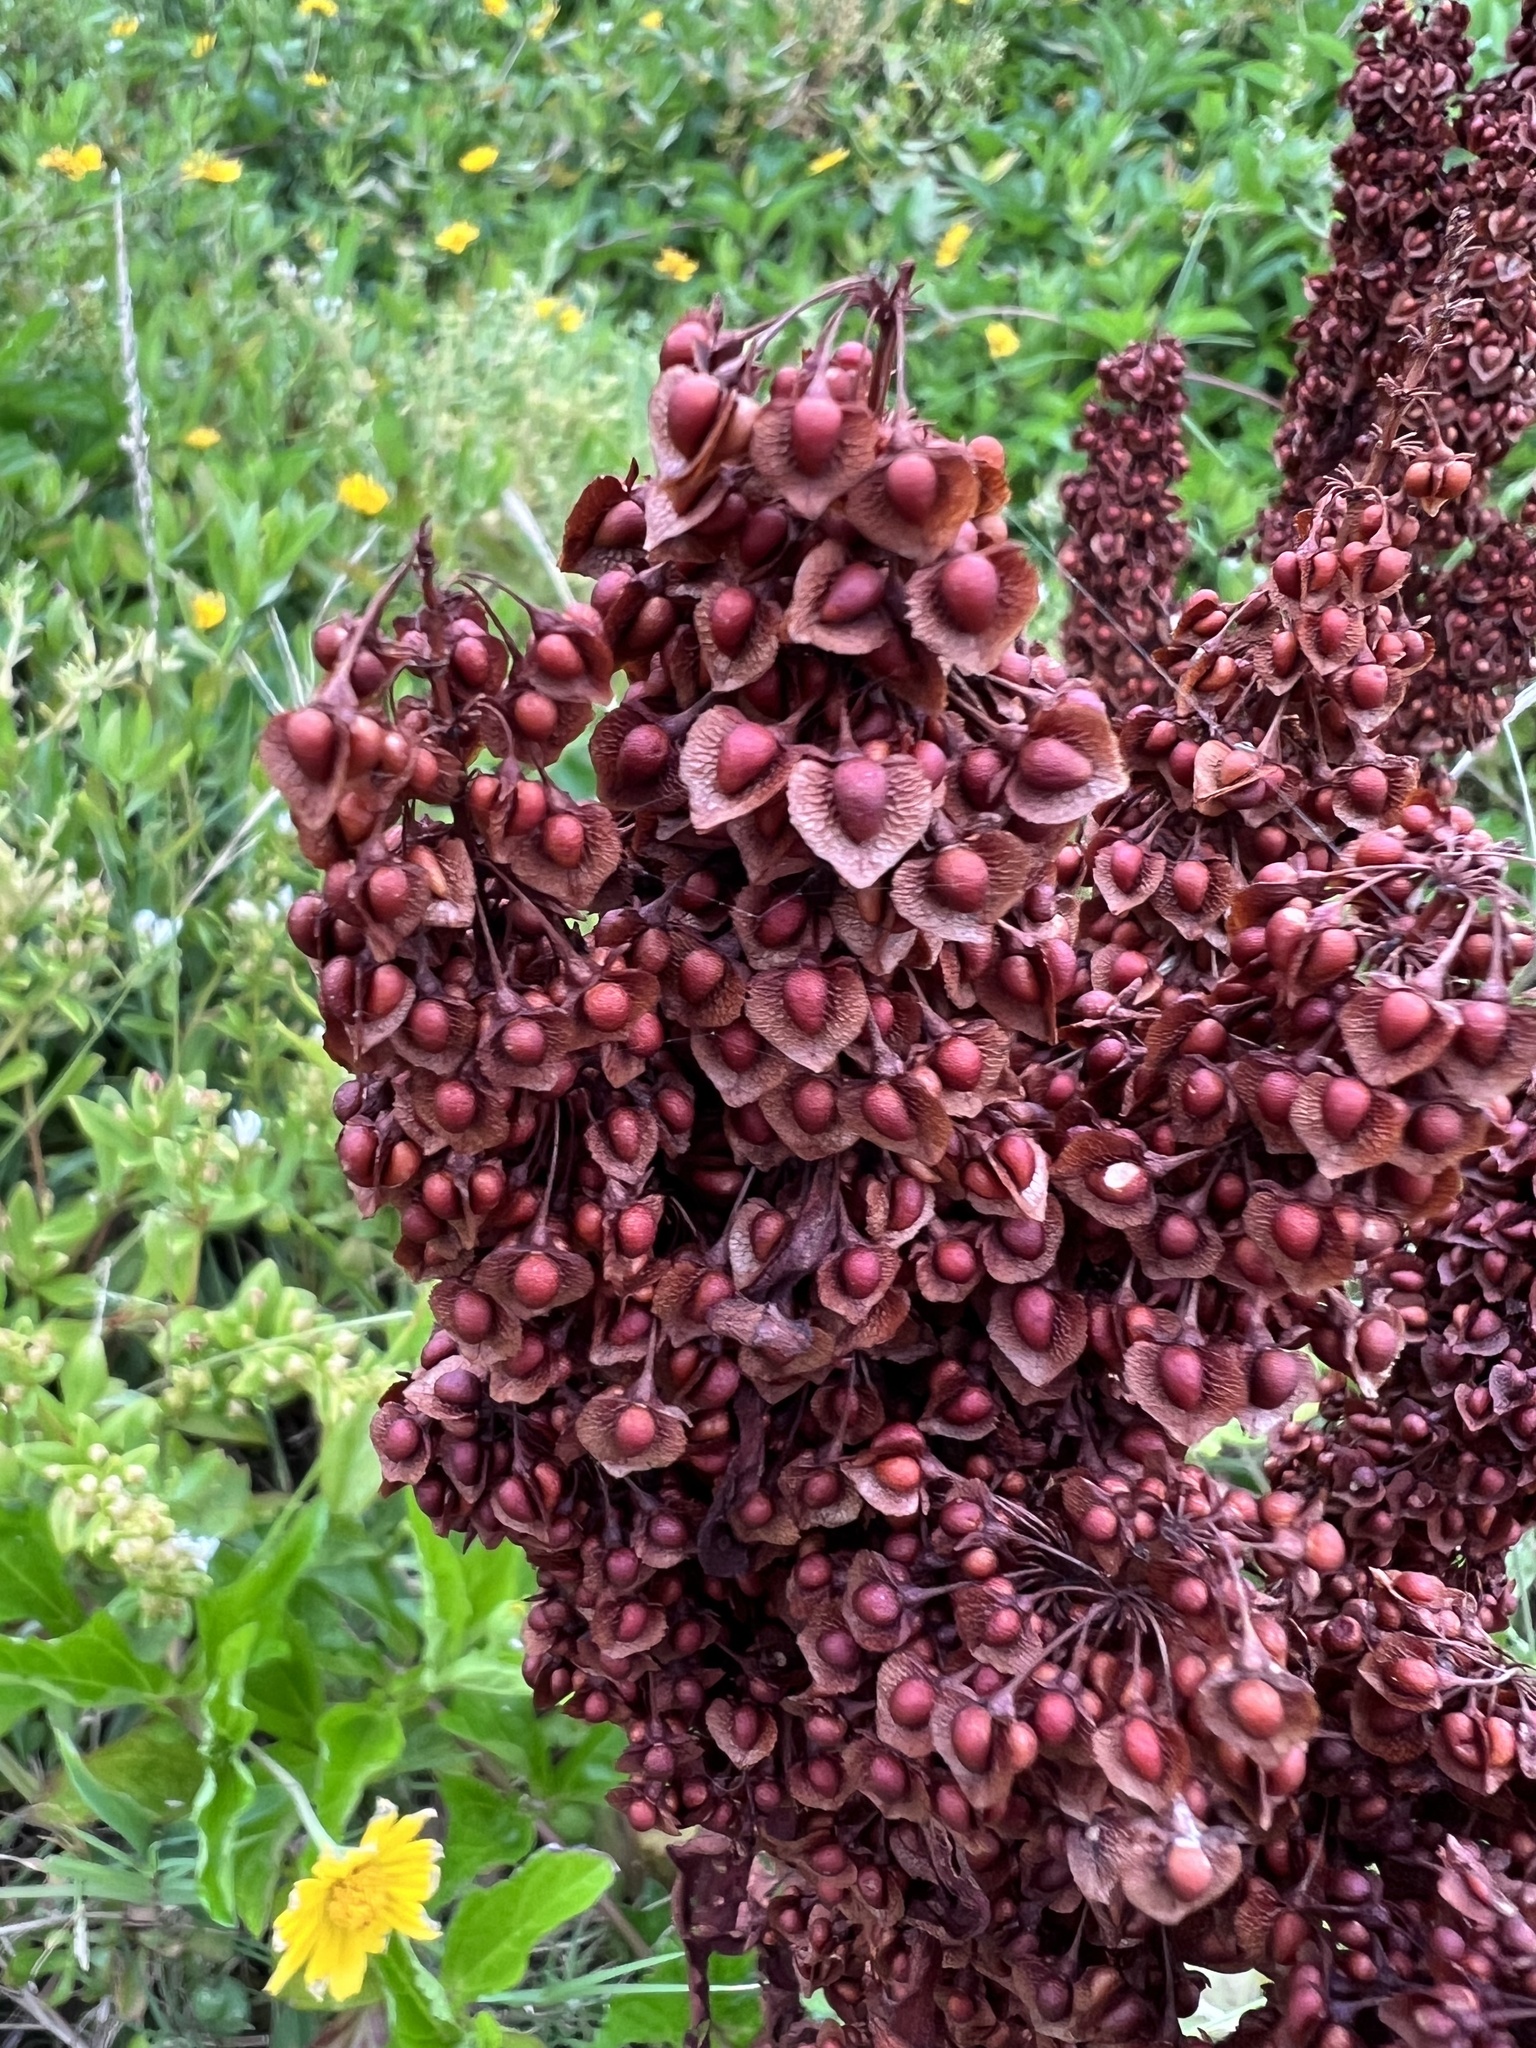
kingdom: Plantae
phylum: Tracheophyta
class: Magnoliopsida
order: Caryophyllales
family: Polygonaceae
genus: Rumex
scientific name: Rumex japonicus
